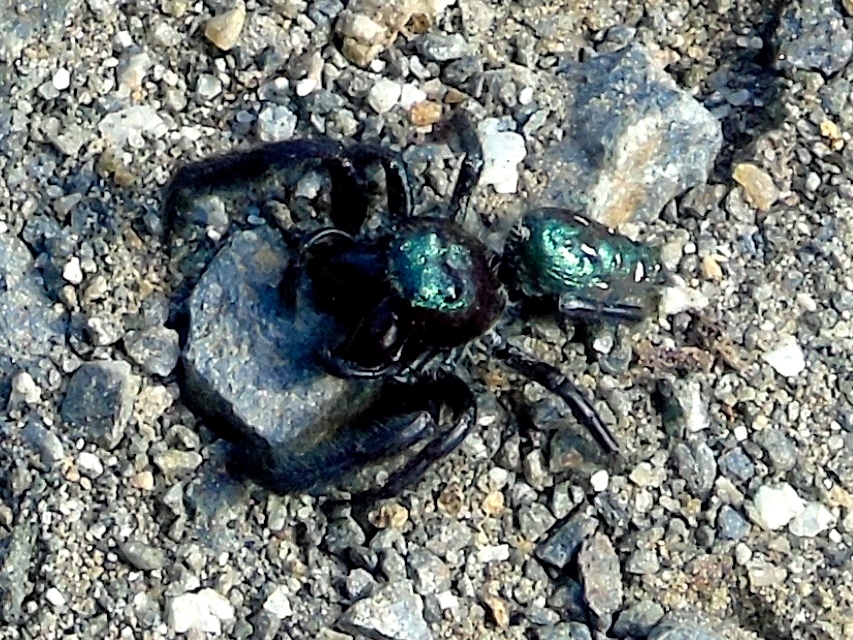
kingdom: Animalia
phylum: Arthropoda
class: Arachnida
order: Araneae
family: Salticidae
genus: Paraphidippus
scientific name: Paraphidippus fartilis
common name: Jumping spiders
